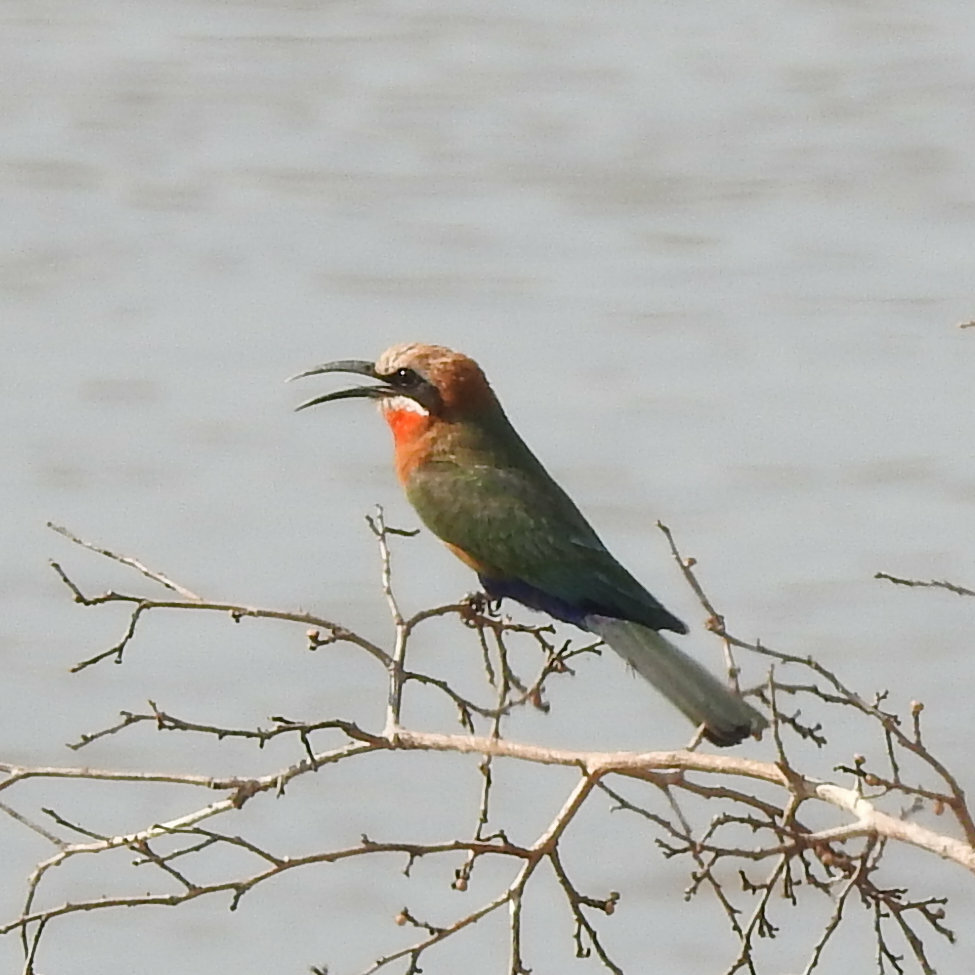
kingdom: Animalia
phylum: Chordata
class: Aves
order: Coraciiformes
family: Meropidae
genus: Merops
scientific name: Merops bullockoides
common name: White-fronted bee-eater
